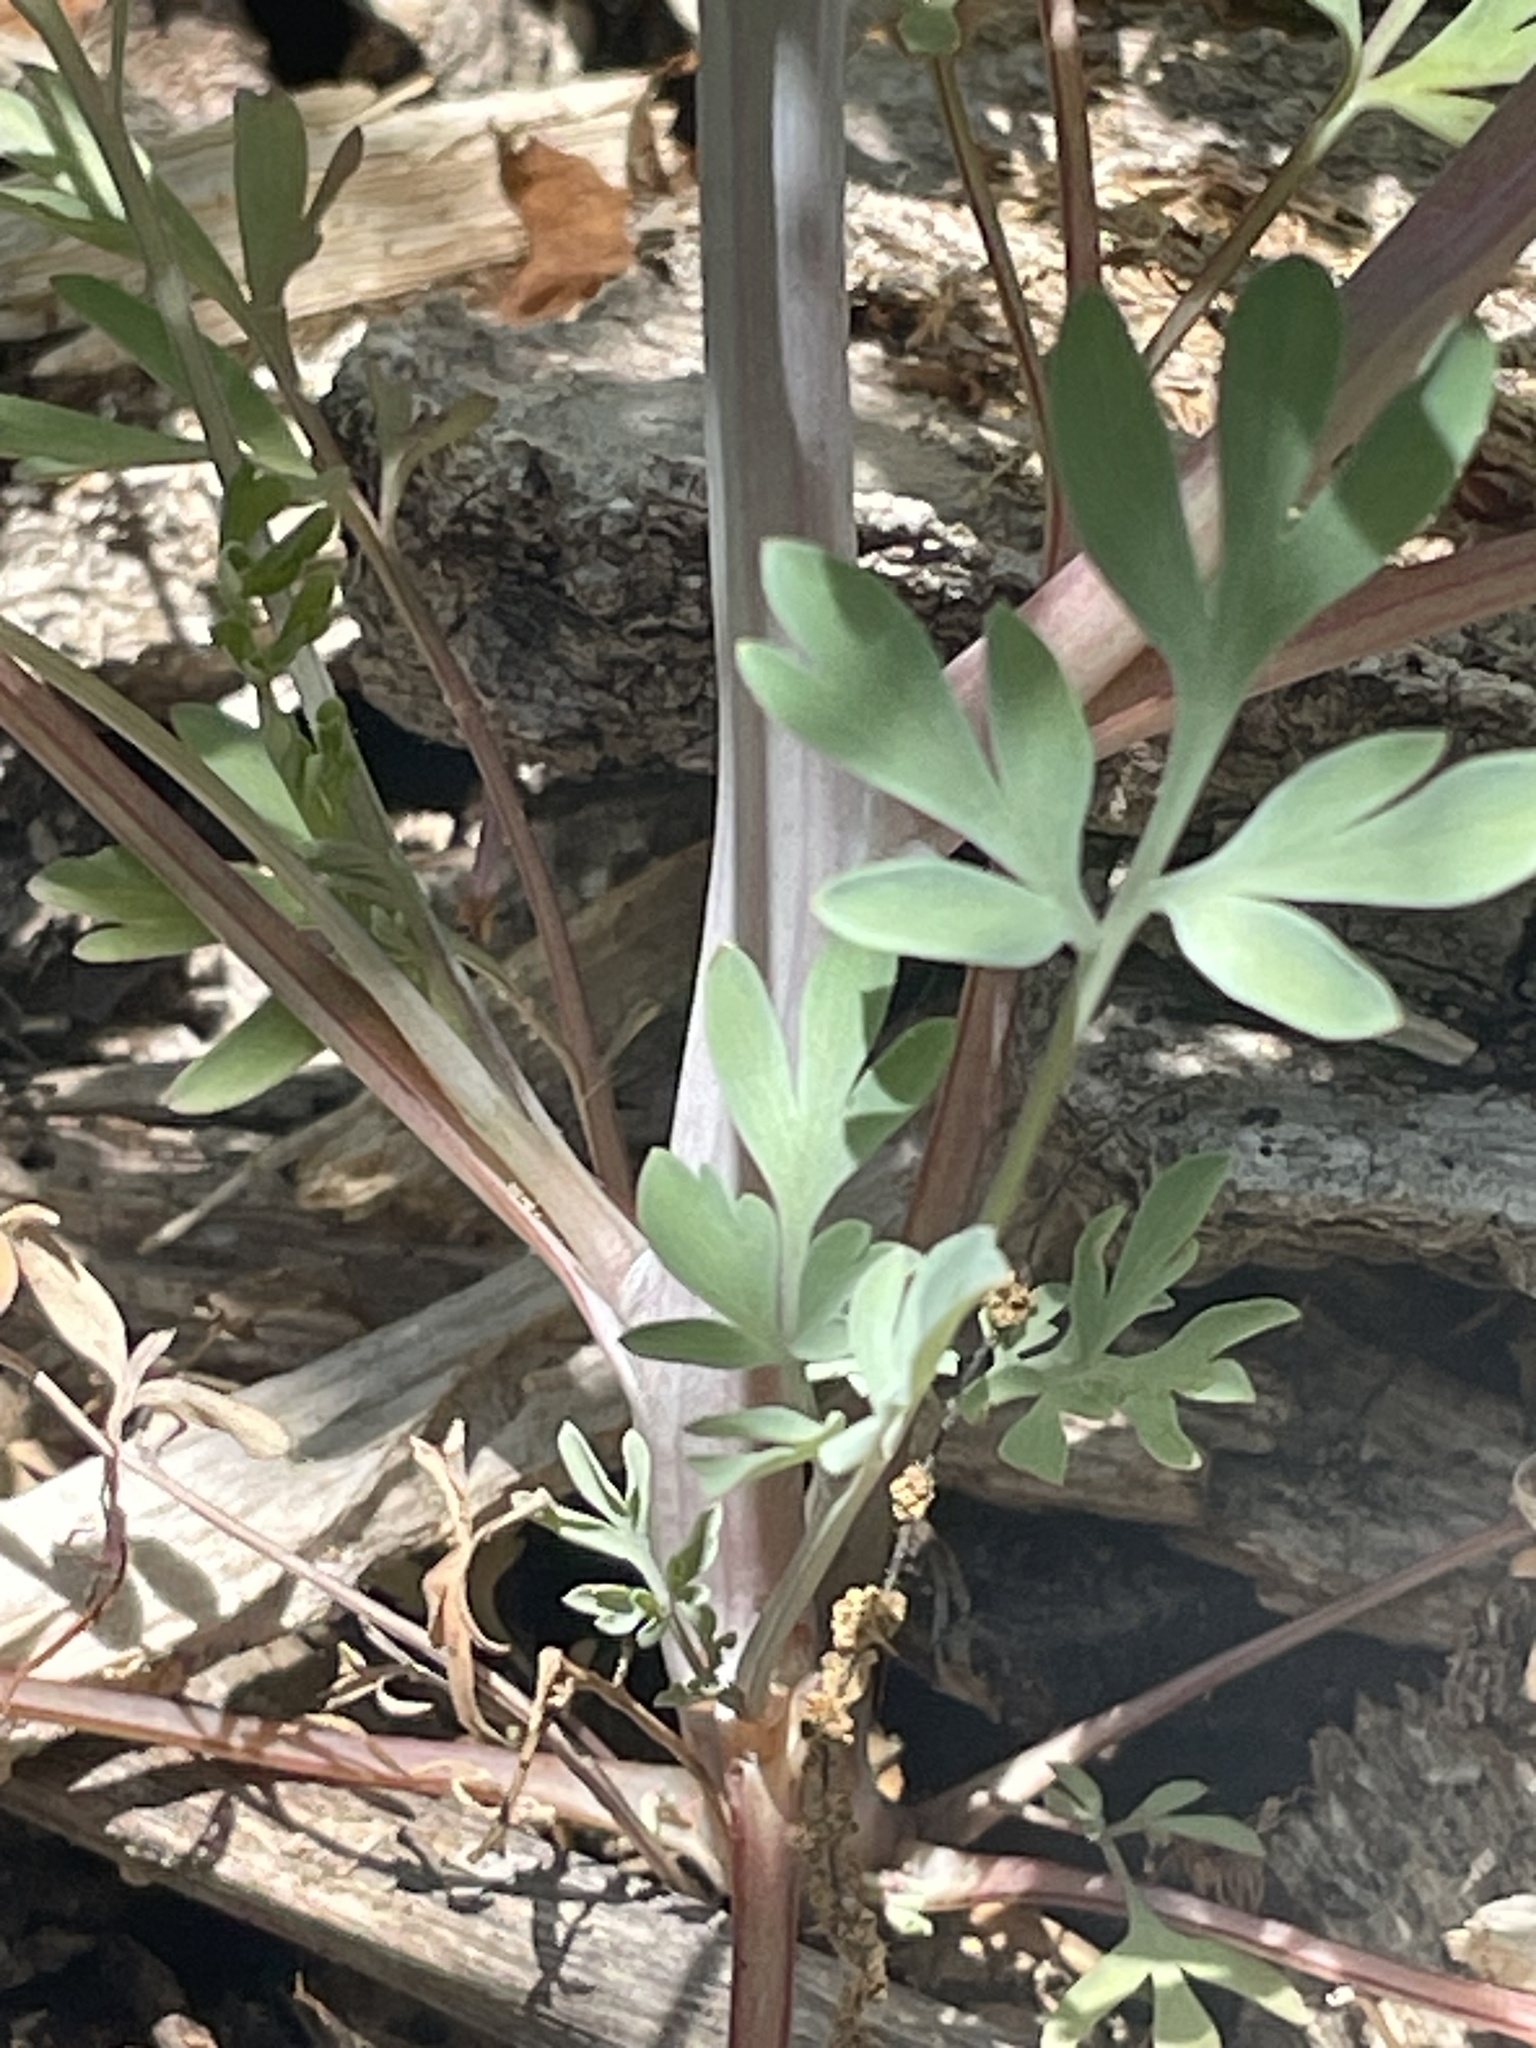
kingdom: Plantae
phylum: Tracheophyta
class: Magnoliopsida
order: Ranunculales
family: Papaveraceae
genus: Capnoides
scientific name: Capnoides sempervirens
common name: Rock harlequin
